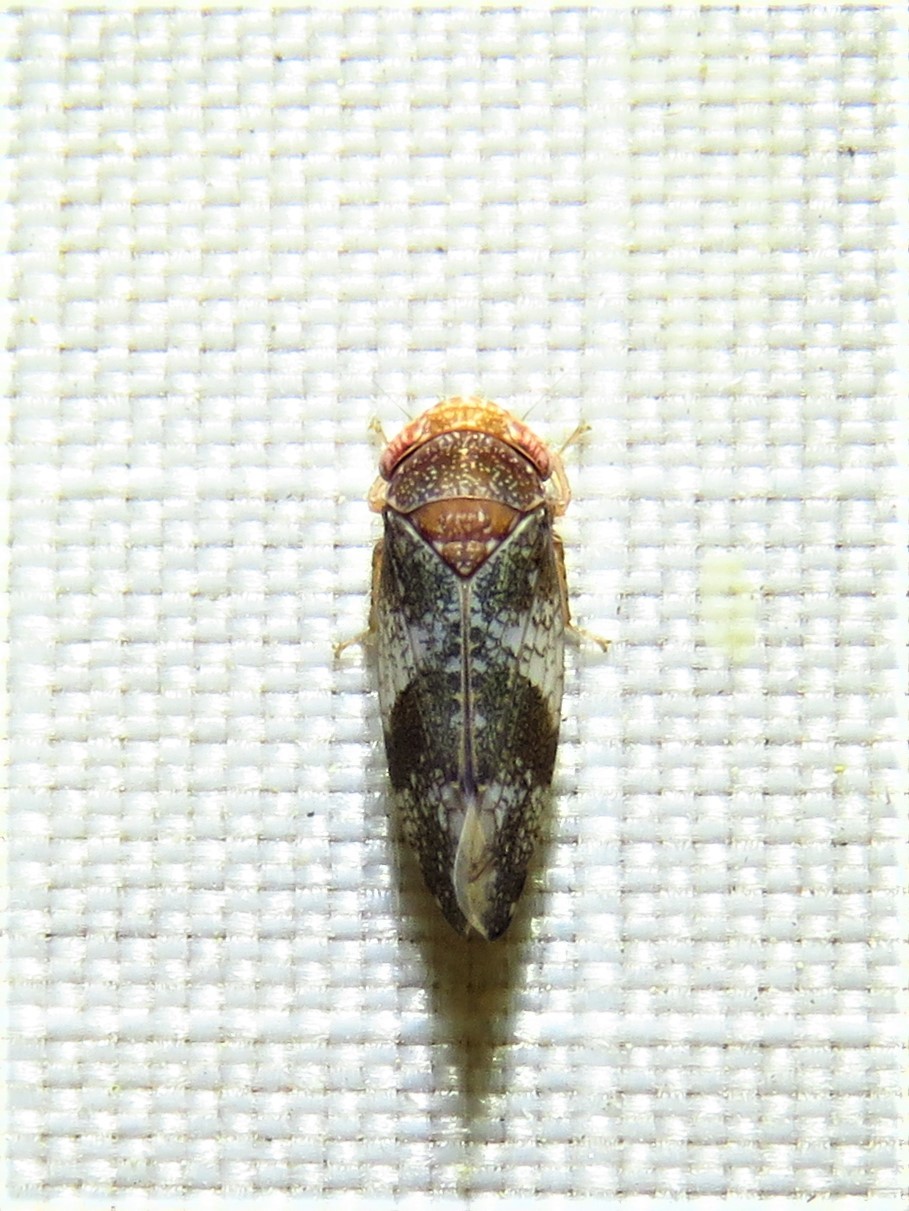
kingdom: Animalia
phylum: Arthropoda
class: Insecta
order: Hemiptera
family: Cicadellidae
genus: Norvellina
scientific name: Norvellina helenae
